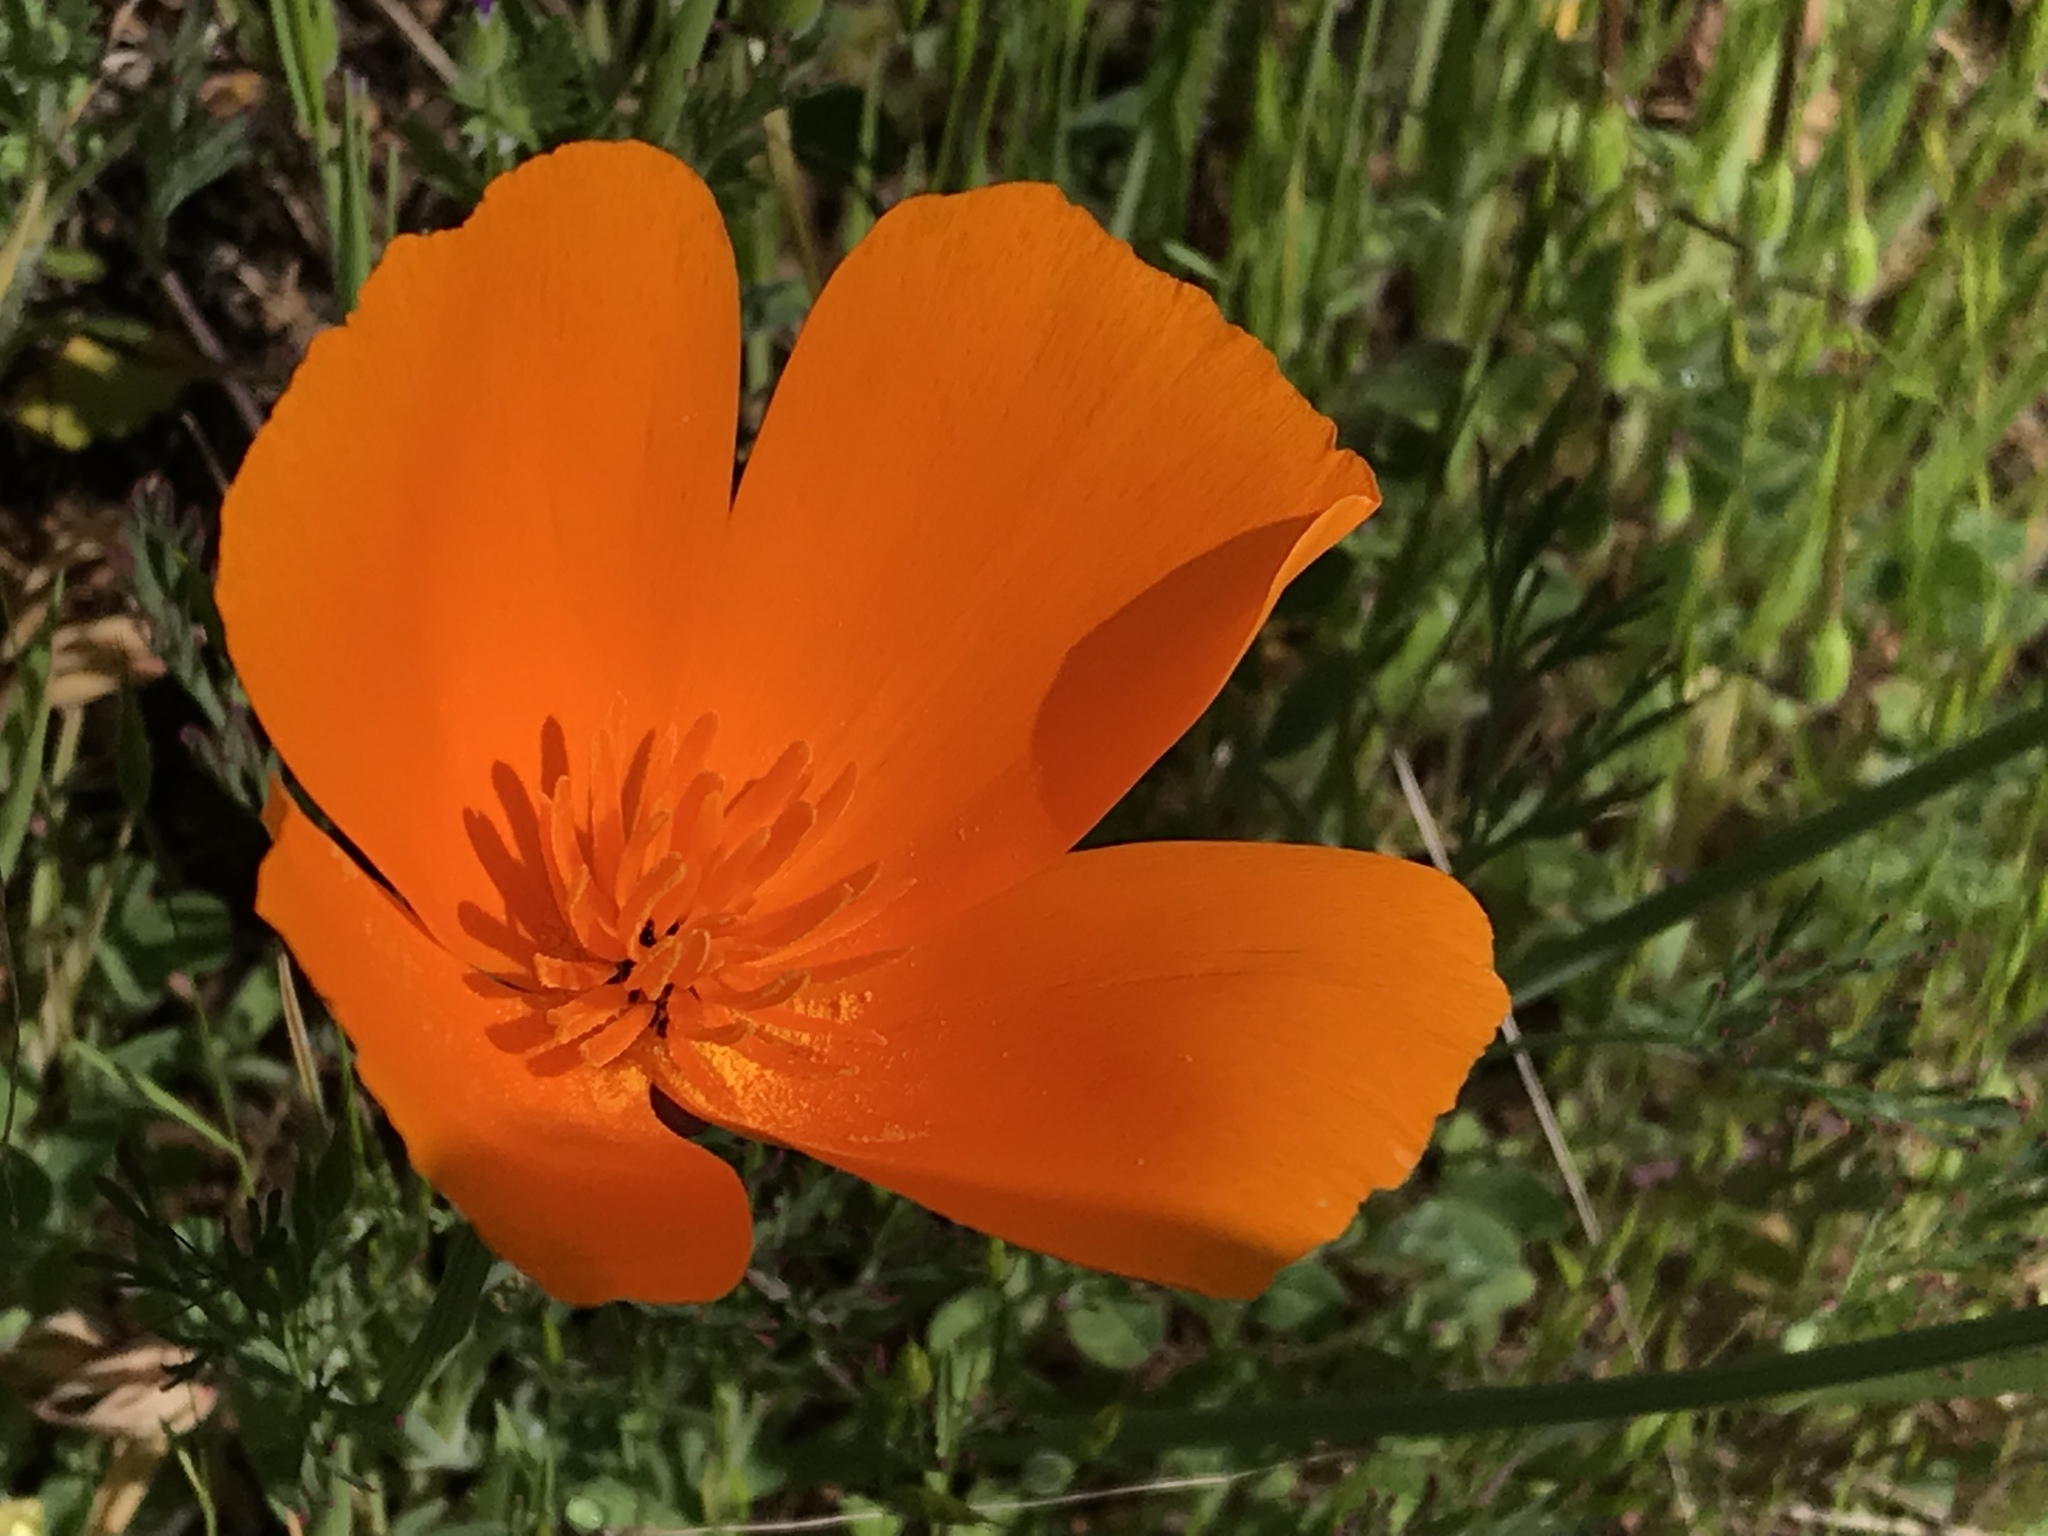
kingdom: Plantae
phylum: Tracheophyta
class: Magnoliopsida
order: Ranunculales
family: Papaveraceae
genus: Eschscholzia
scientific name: Eschscholzia californica
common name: California poppy
